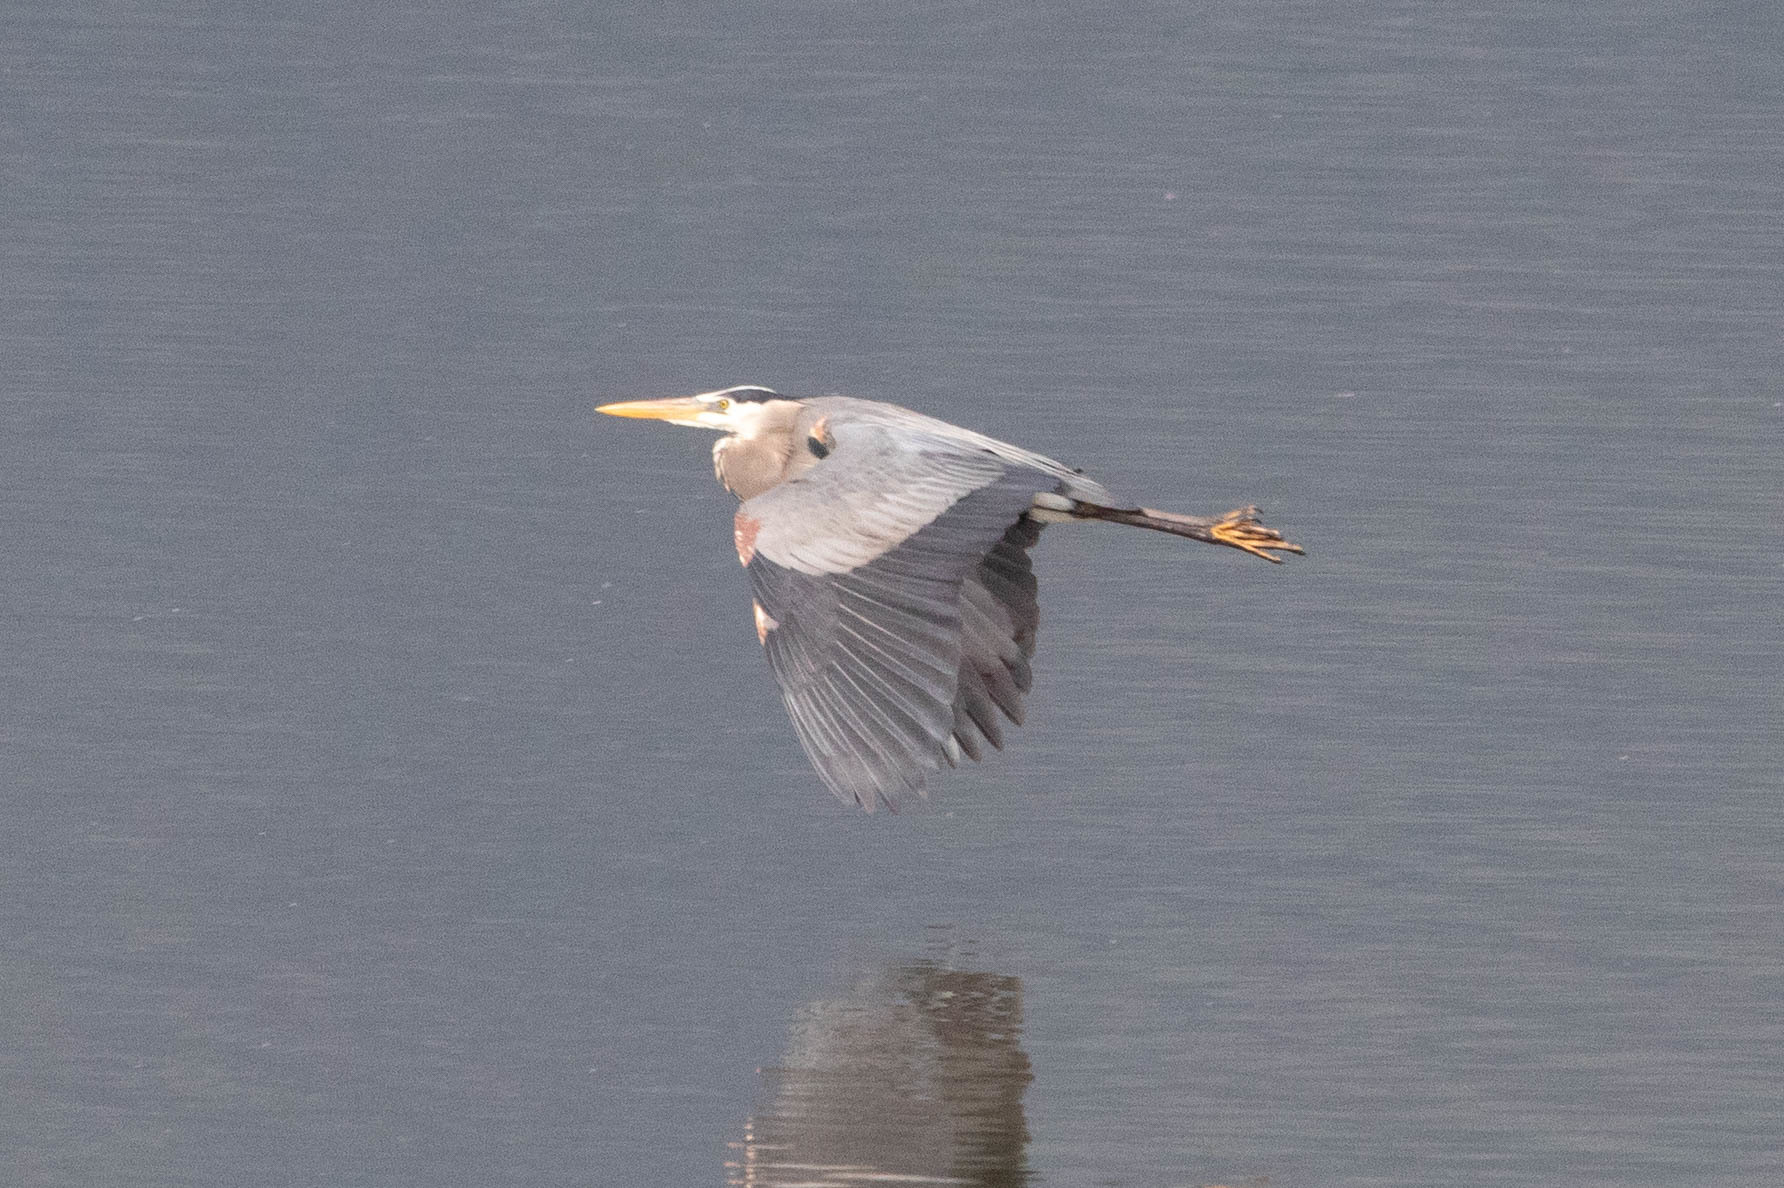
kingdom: Animalia
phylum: Chordata
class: Aves
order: Pelecaniformes
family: Ardeidae
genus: Ardea
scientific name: Ardea herodias
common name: Great blue heron
